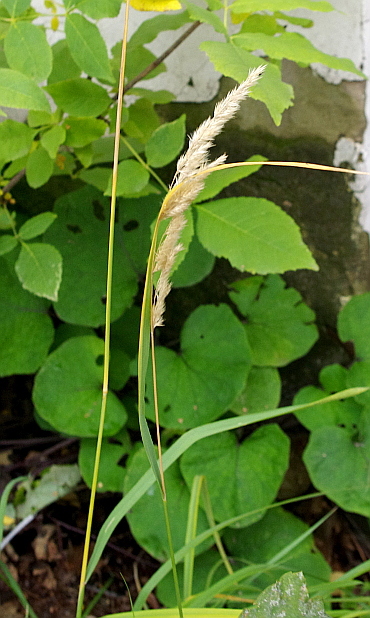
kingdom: Plantae
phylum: Tracheophyta
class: Liliopsida
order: Poales
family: Poaceae
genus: Calamagrostis
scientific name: Calamagrostis epigejos
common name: Wood small-reed
